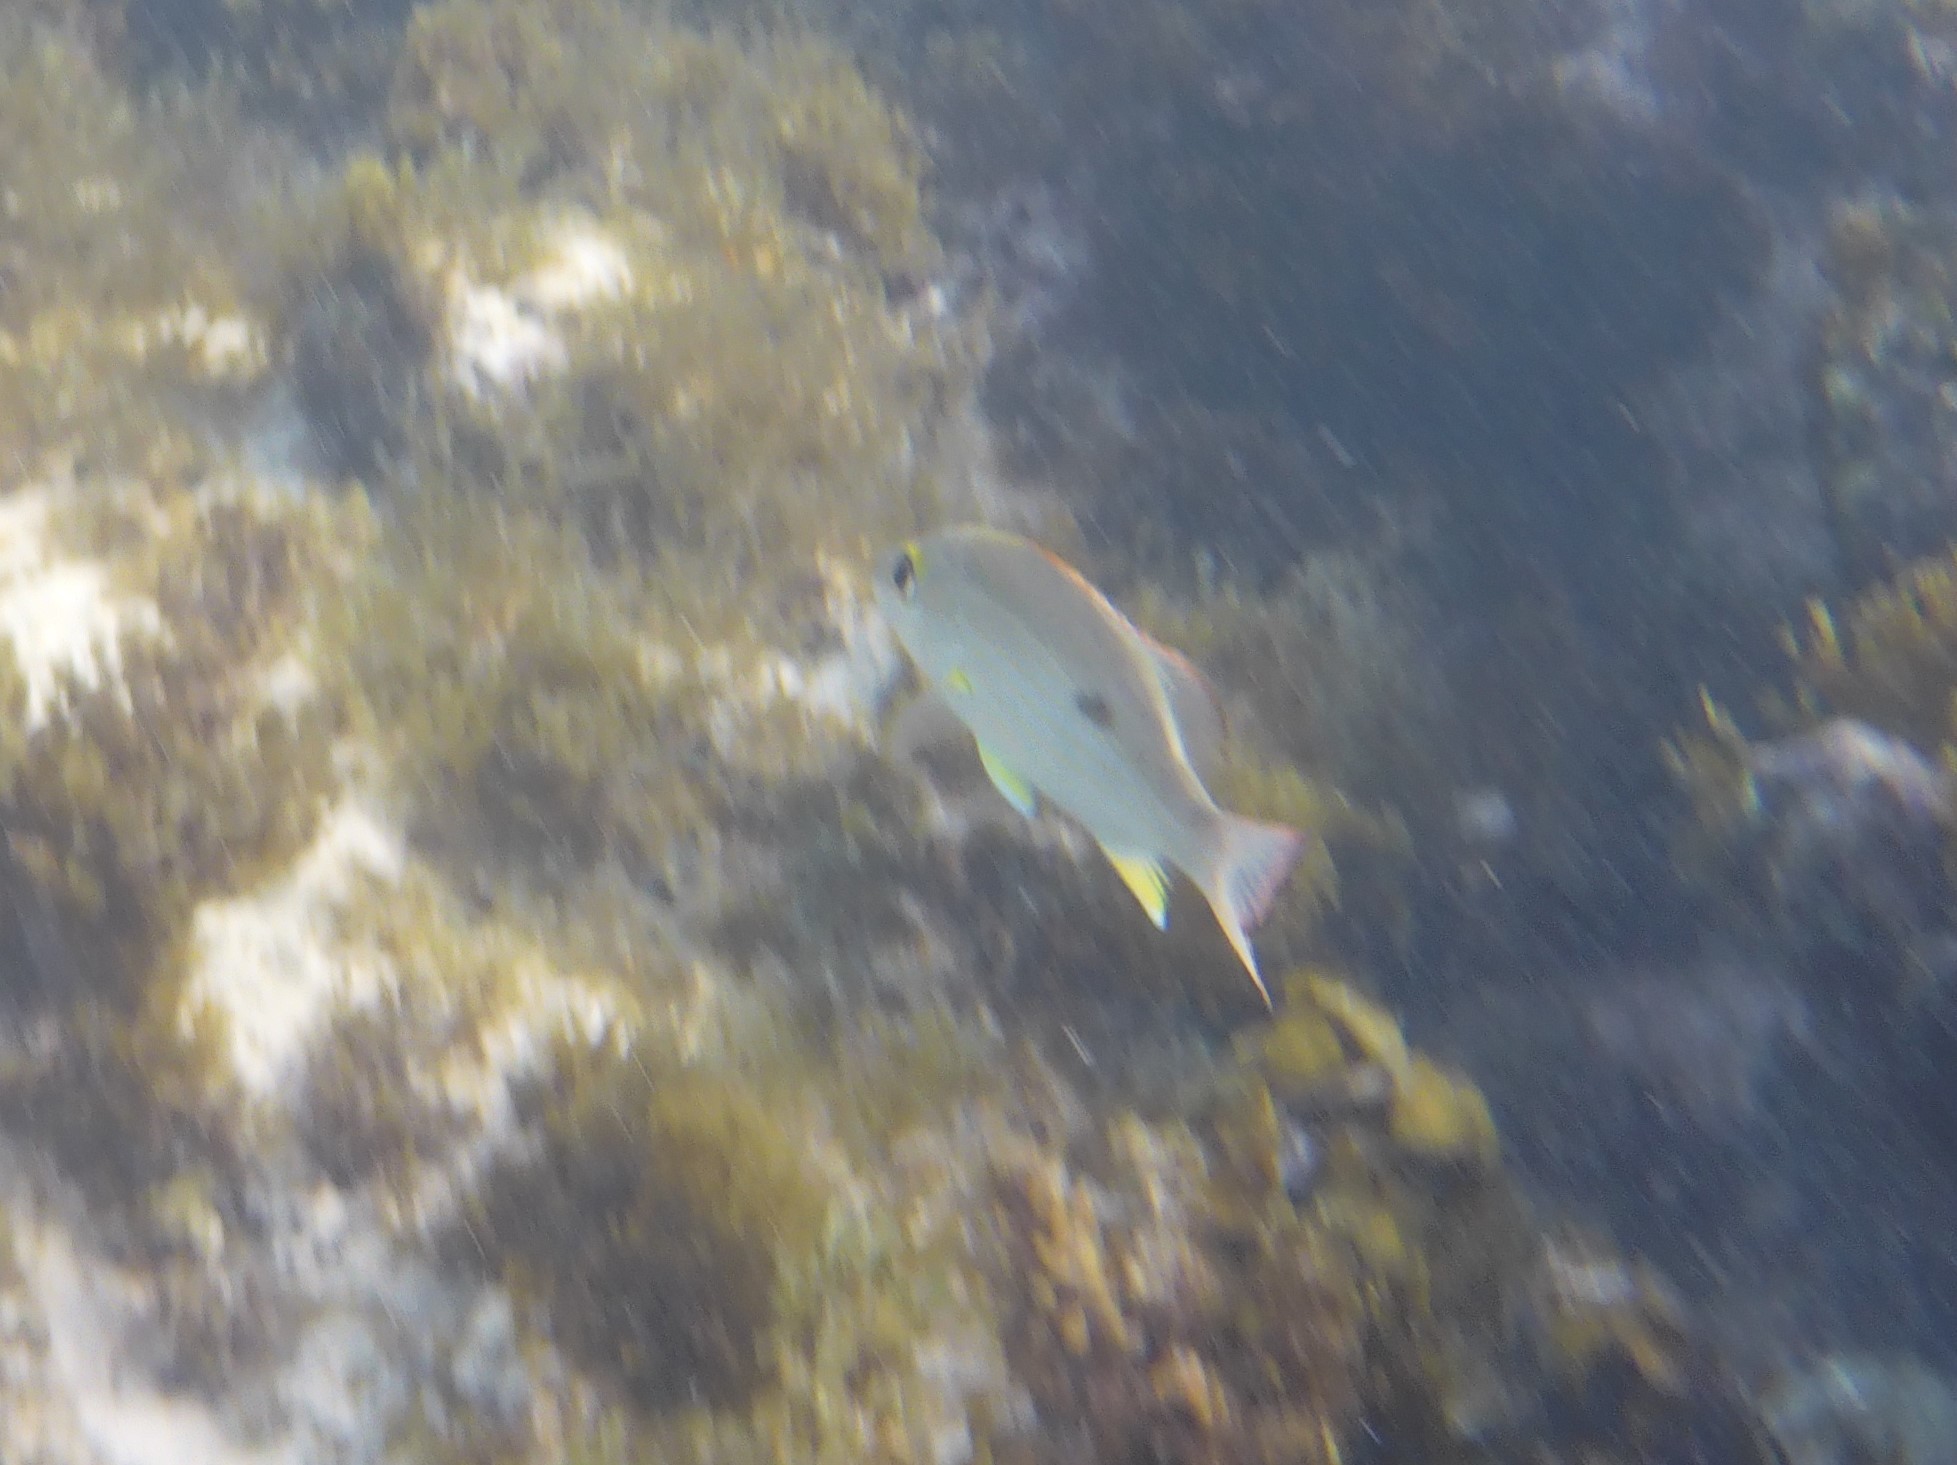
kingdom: Animalia
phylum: Chordata
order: Perciformes
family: Lutjanidae
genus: Lutjanus
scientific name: Lutjanus mahogoni
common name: Spot snapper
